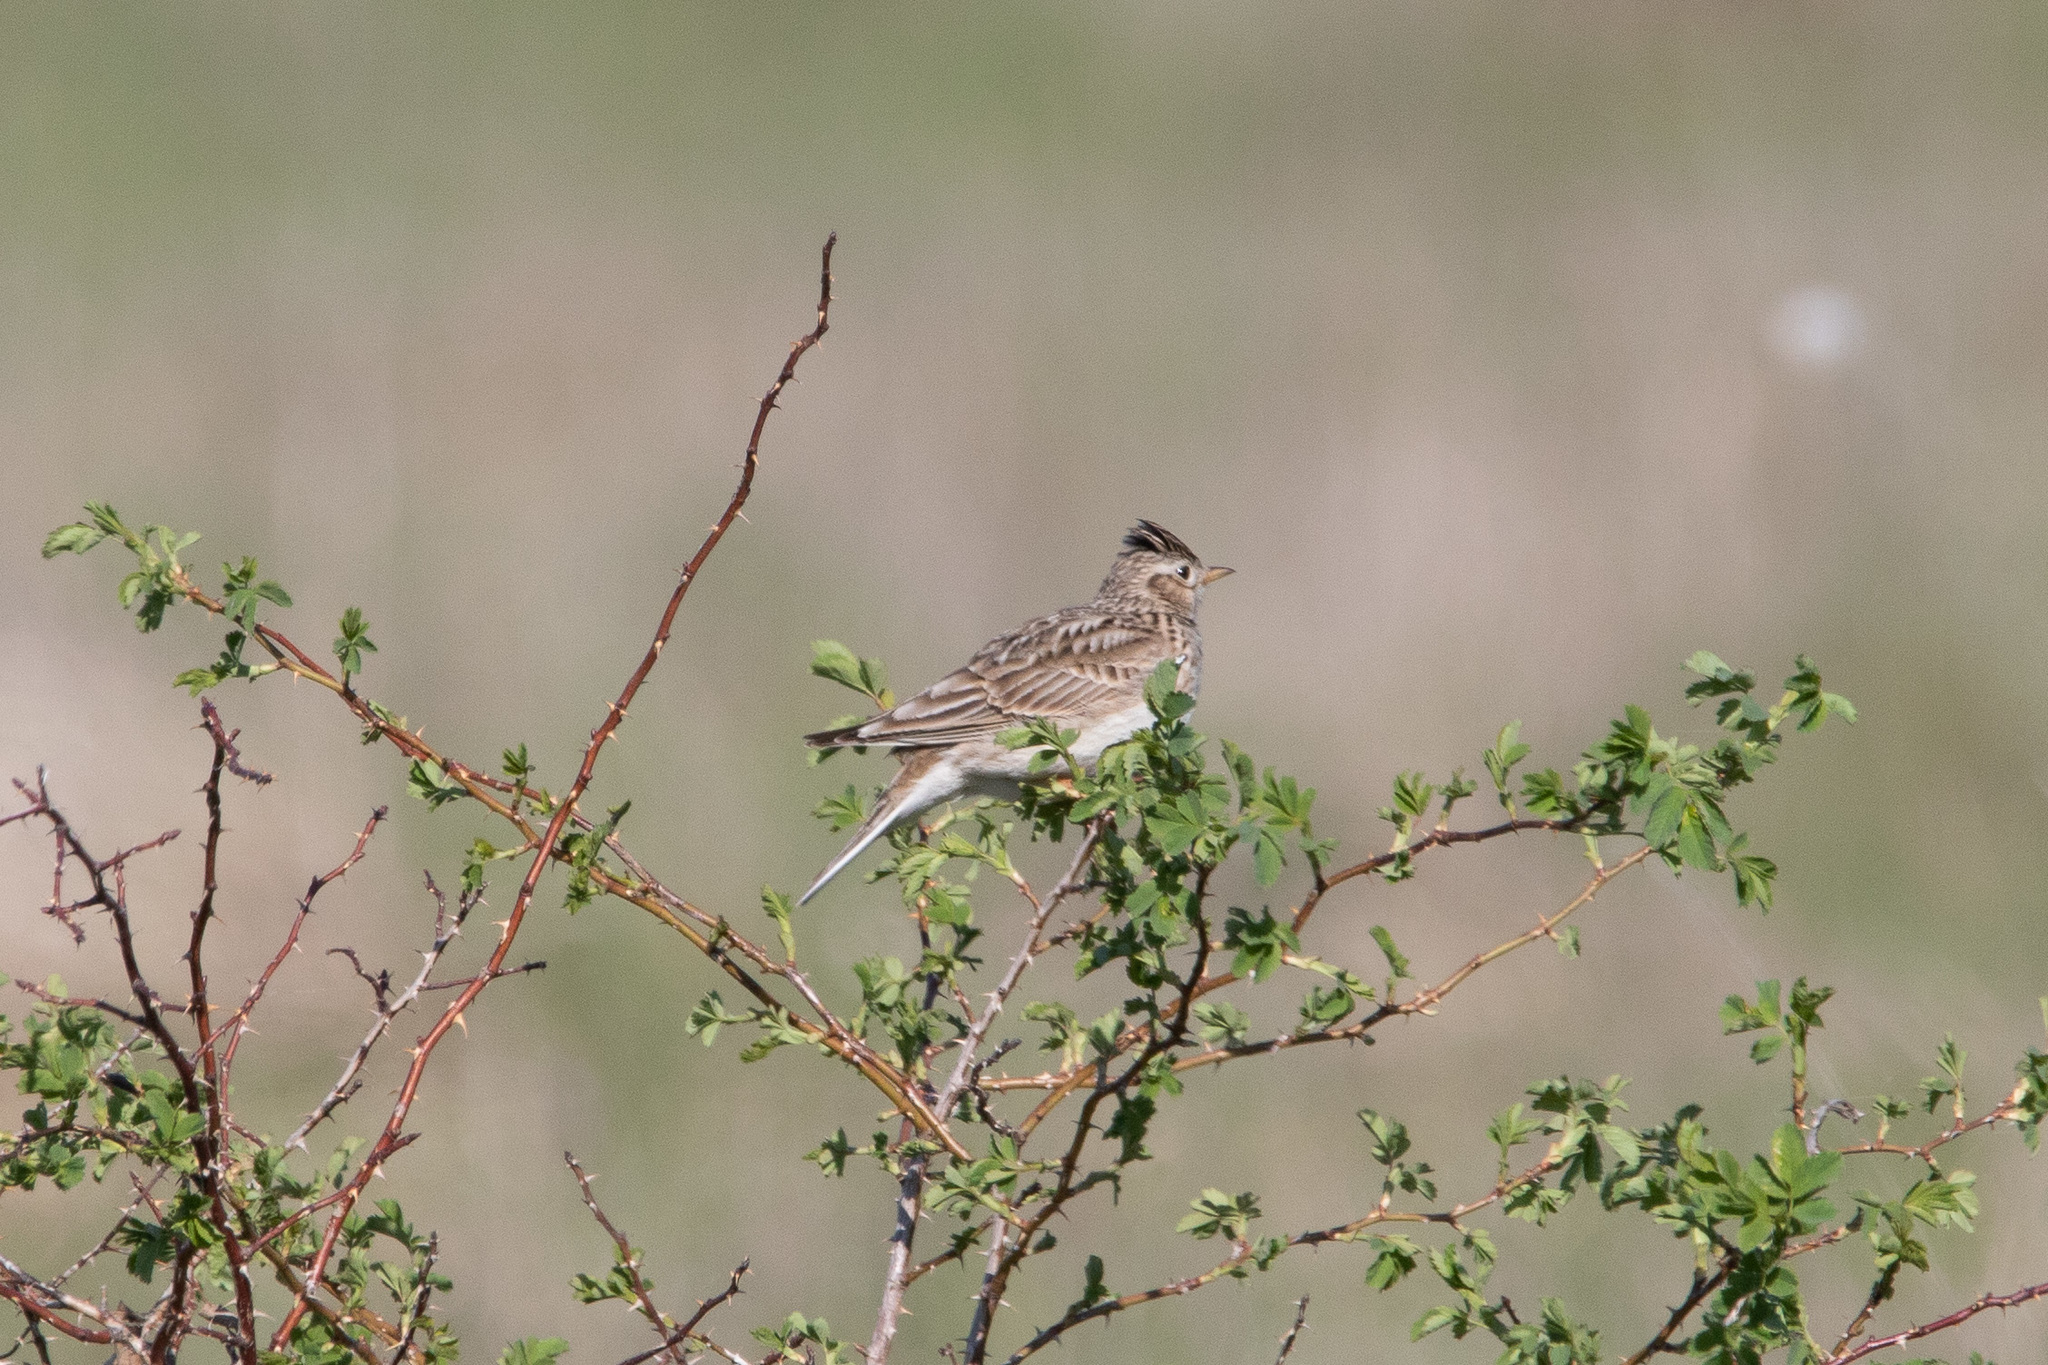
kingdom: Animalia
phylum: Chordata
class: Aves
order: Passeriformes
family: Alaudidae
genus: Alauda
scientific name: Alauda arvensis
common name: Eurasian skylark
